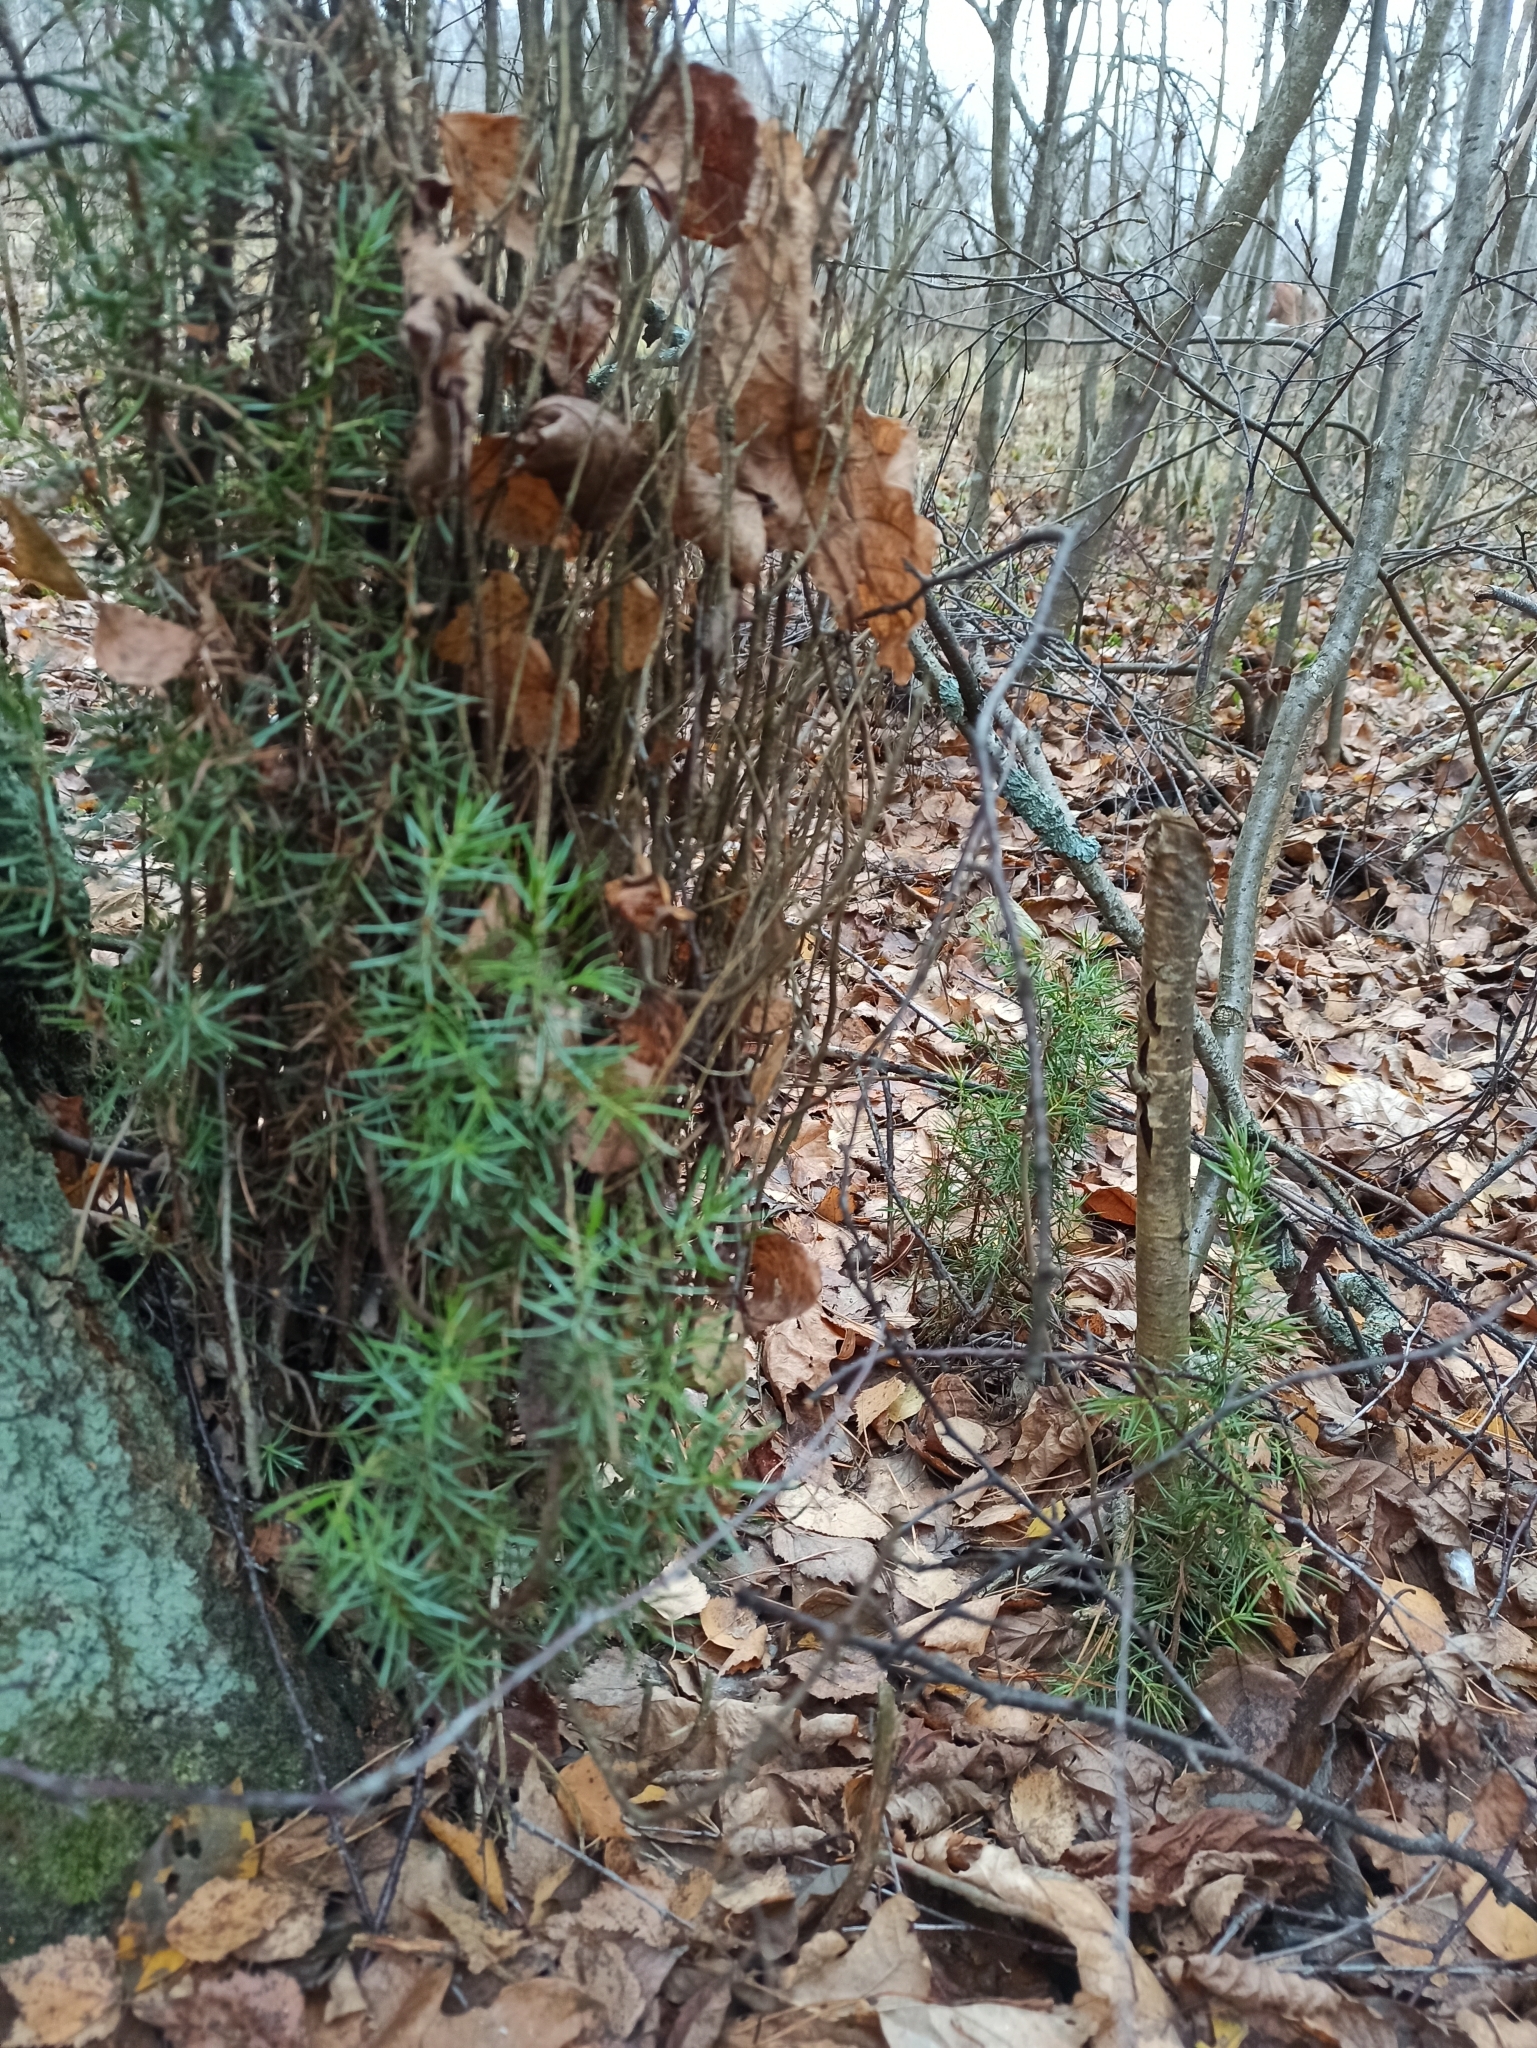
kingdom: Plantae
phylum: Tracheophyta
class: Pinopsida
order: Pinales
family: Cupressaceae
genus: Juniperus
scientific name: Juniperus communis
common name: Common juniper
